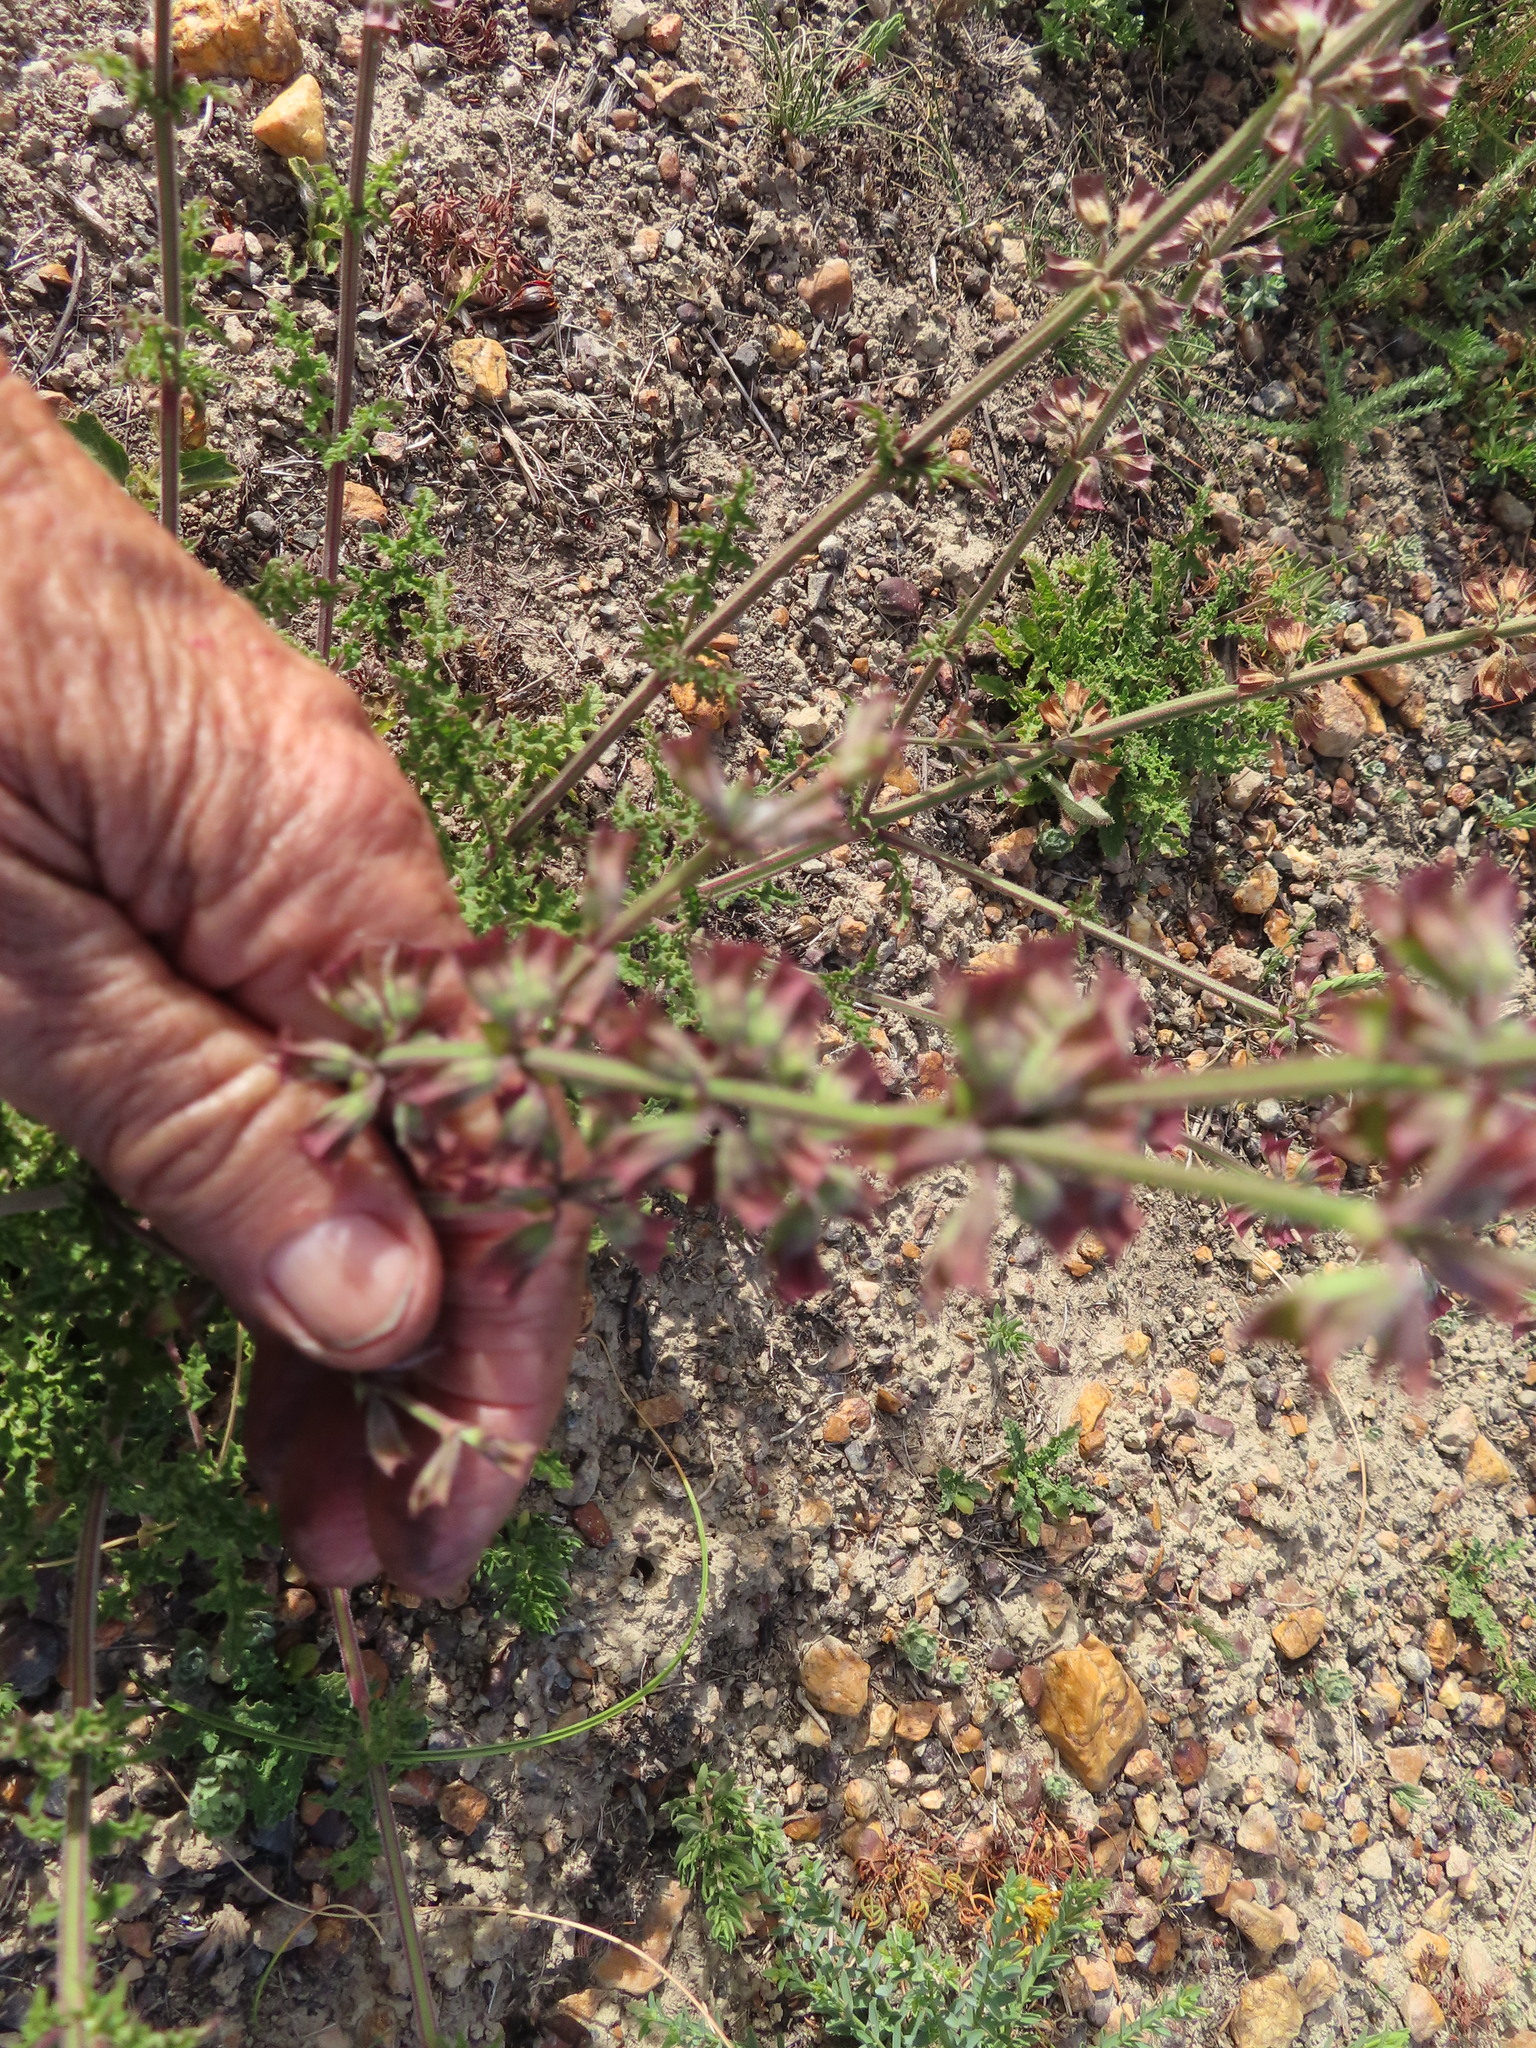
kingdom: Plantae
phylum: Tracheophyta
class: Magnoliopsida
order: Lamiales
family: Lamiaceae
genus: Salvia
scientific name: Salvia runcinata
